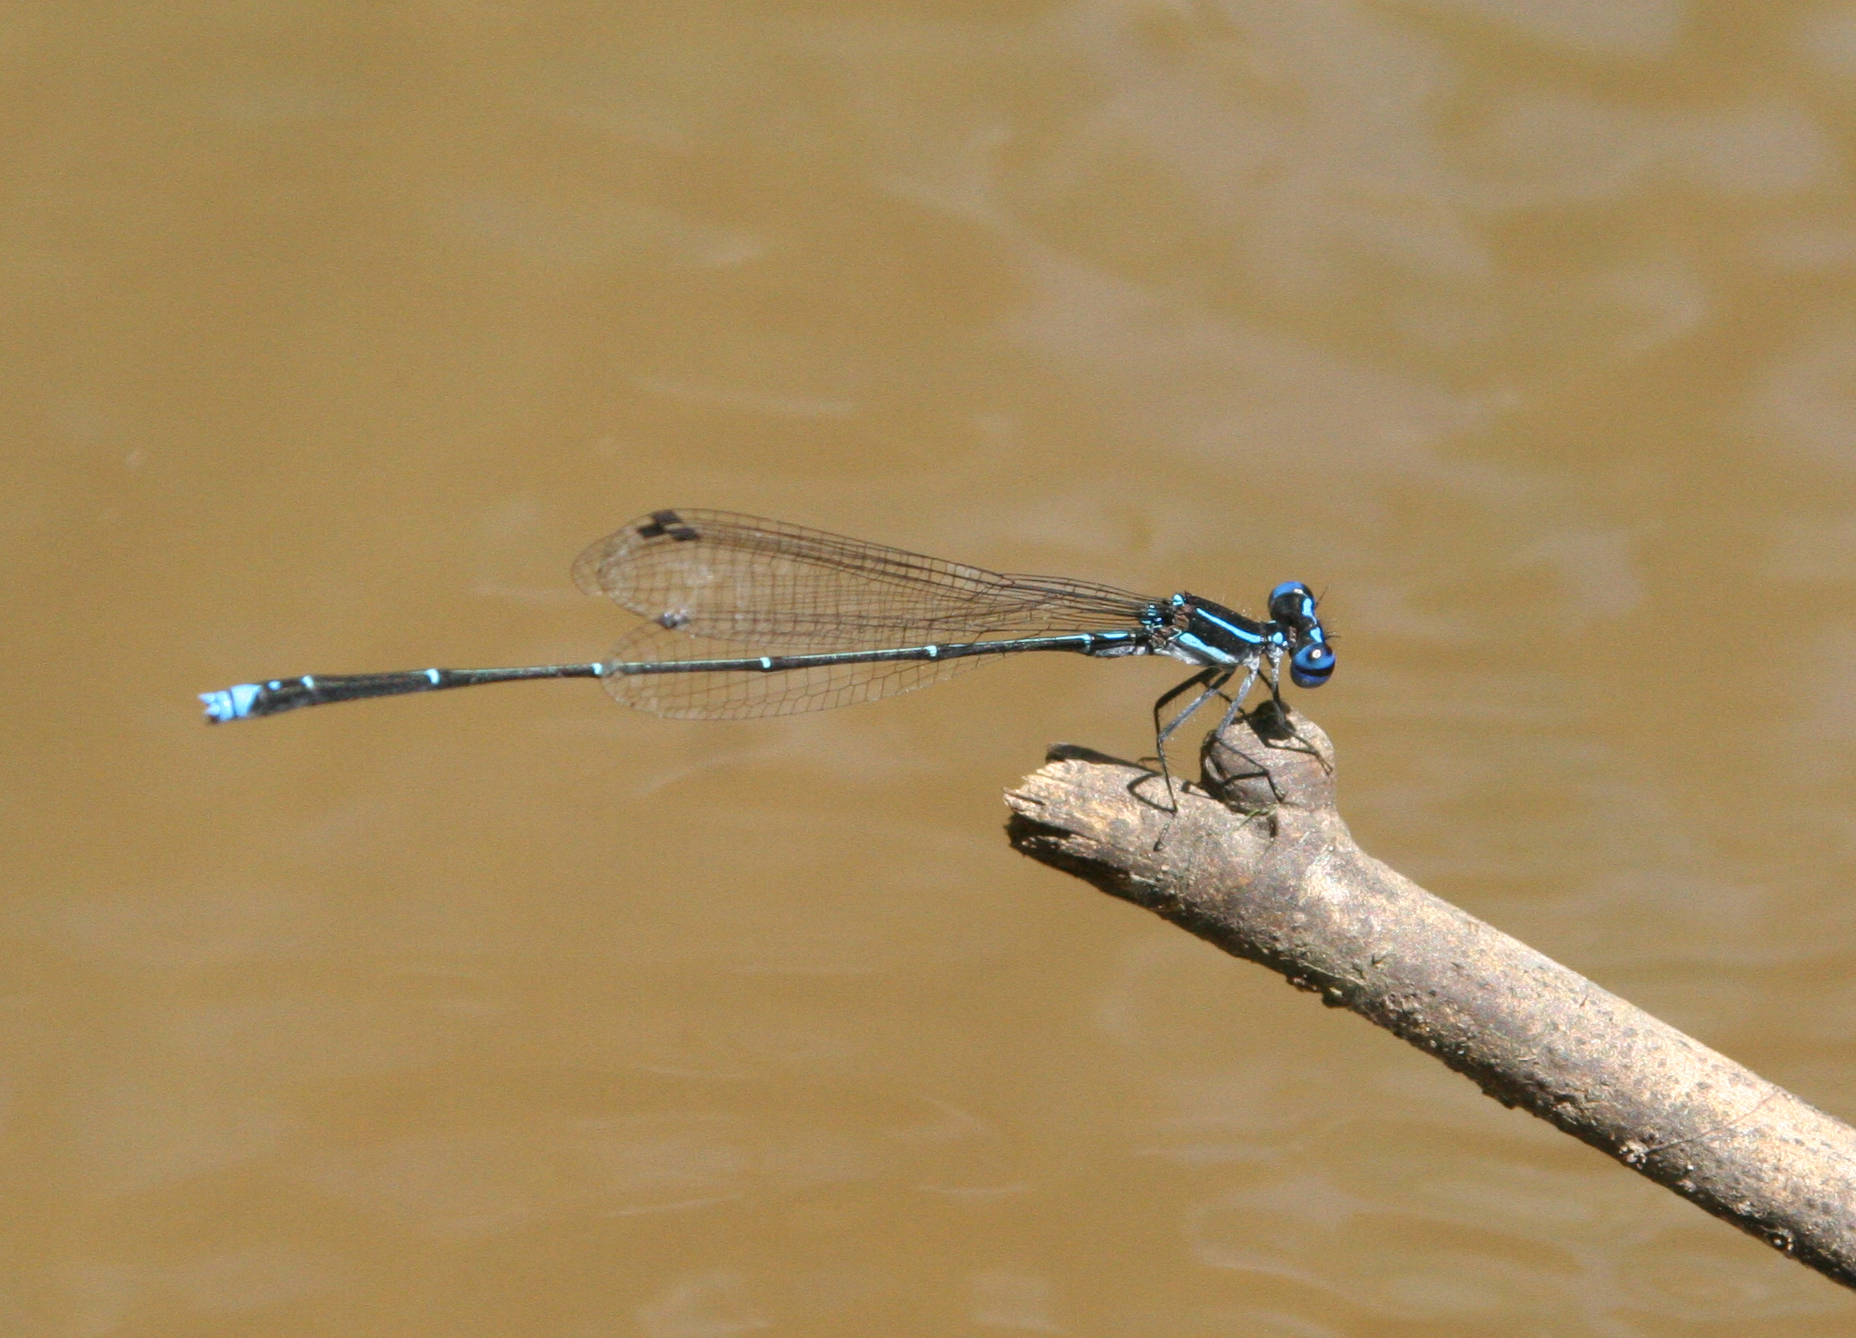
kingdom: Animalia
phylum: Arthropoda
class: Insecta
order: Odonata
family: Platycnemididae
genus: Prodasineura
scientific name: Prodasineura coerulescens
